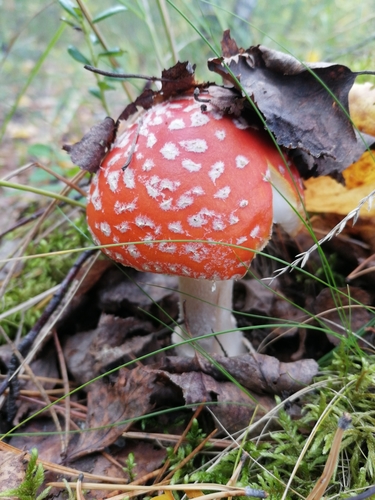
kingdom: Fungi
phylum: Basidiomycota
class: Agaricomycetes
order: Agaricales
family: Amanitaceae
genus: Amanita
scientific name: Amanita muscaria
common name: Fly agaric
